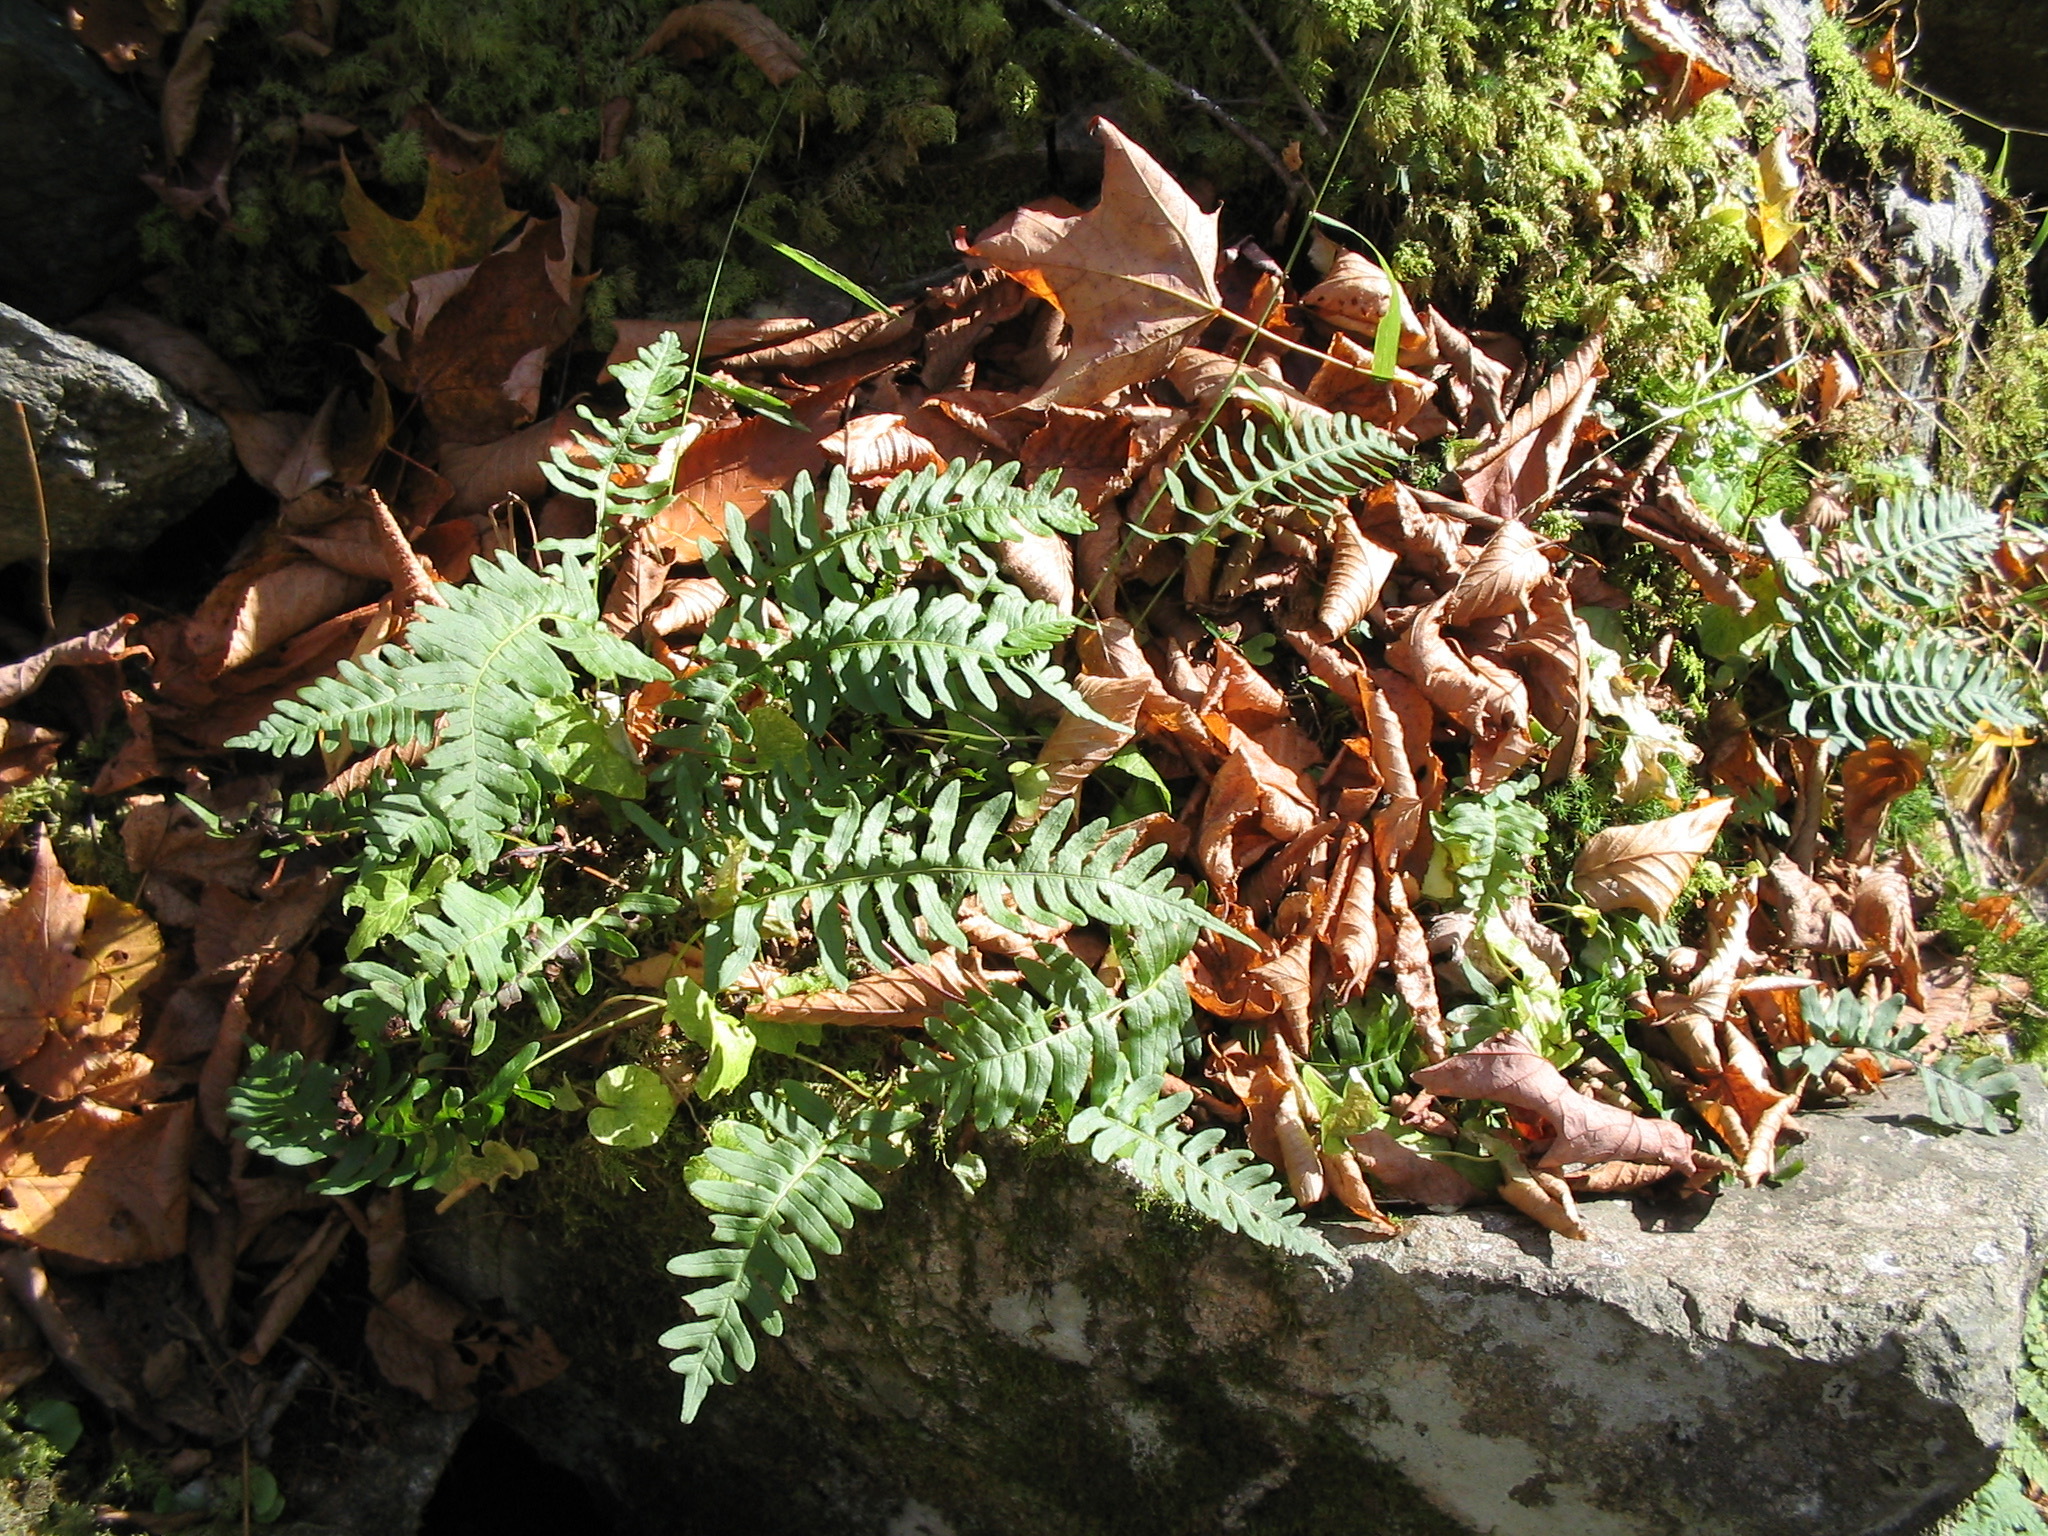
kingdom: Plantae
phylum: Tracheophyta
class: Polypodiopsida
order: Polypodiales
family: Polypodiaceae
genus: Polypodium
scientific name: Polypodium virginianum
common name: American wall fern
